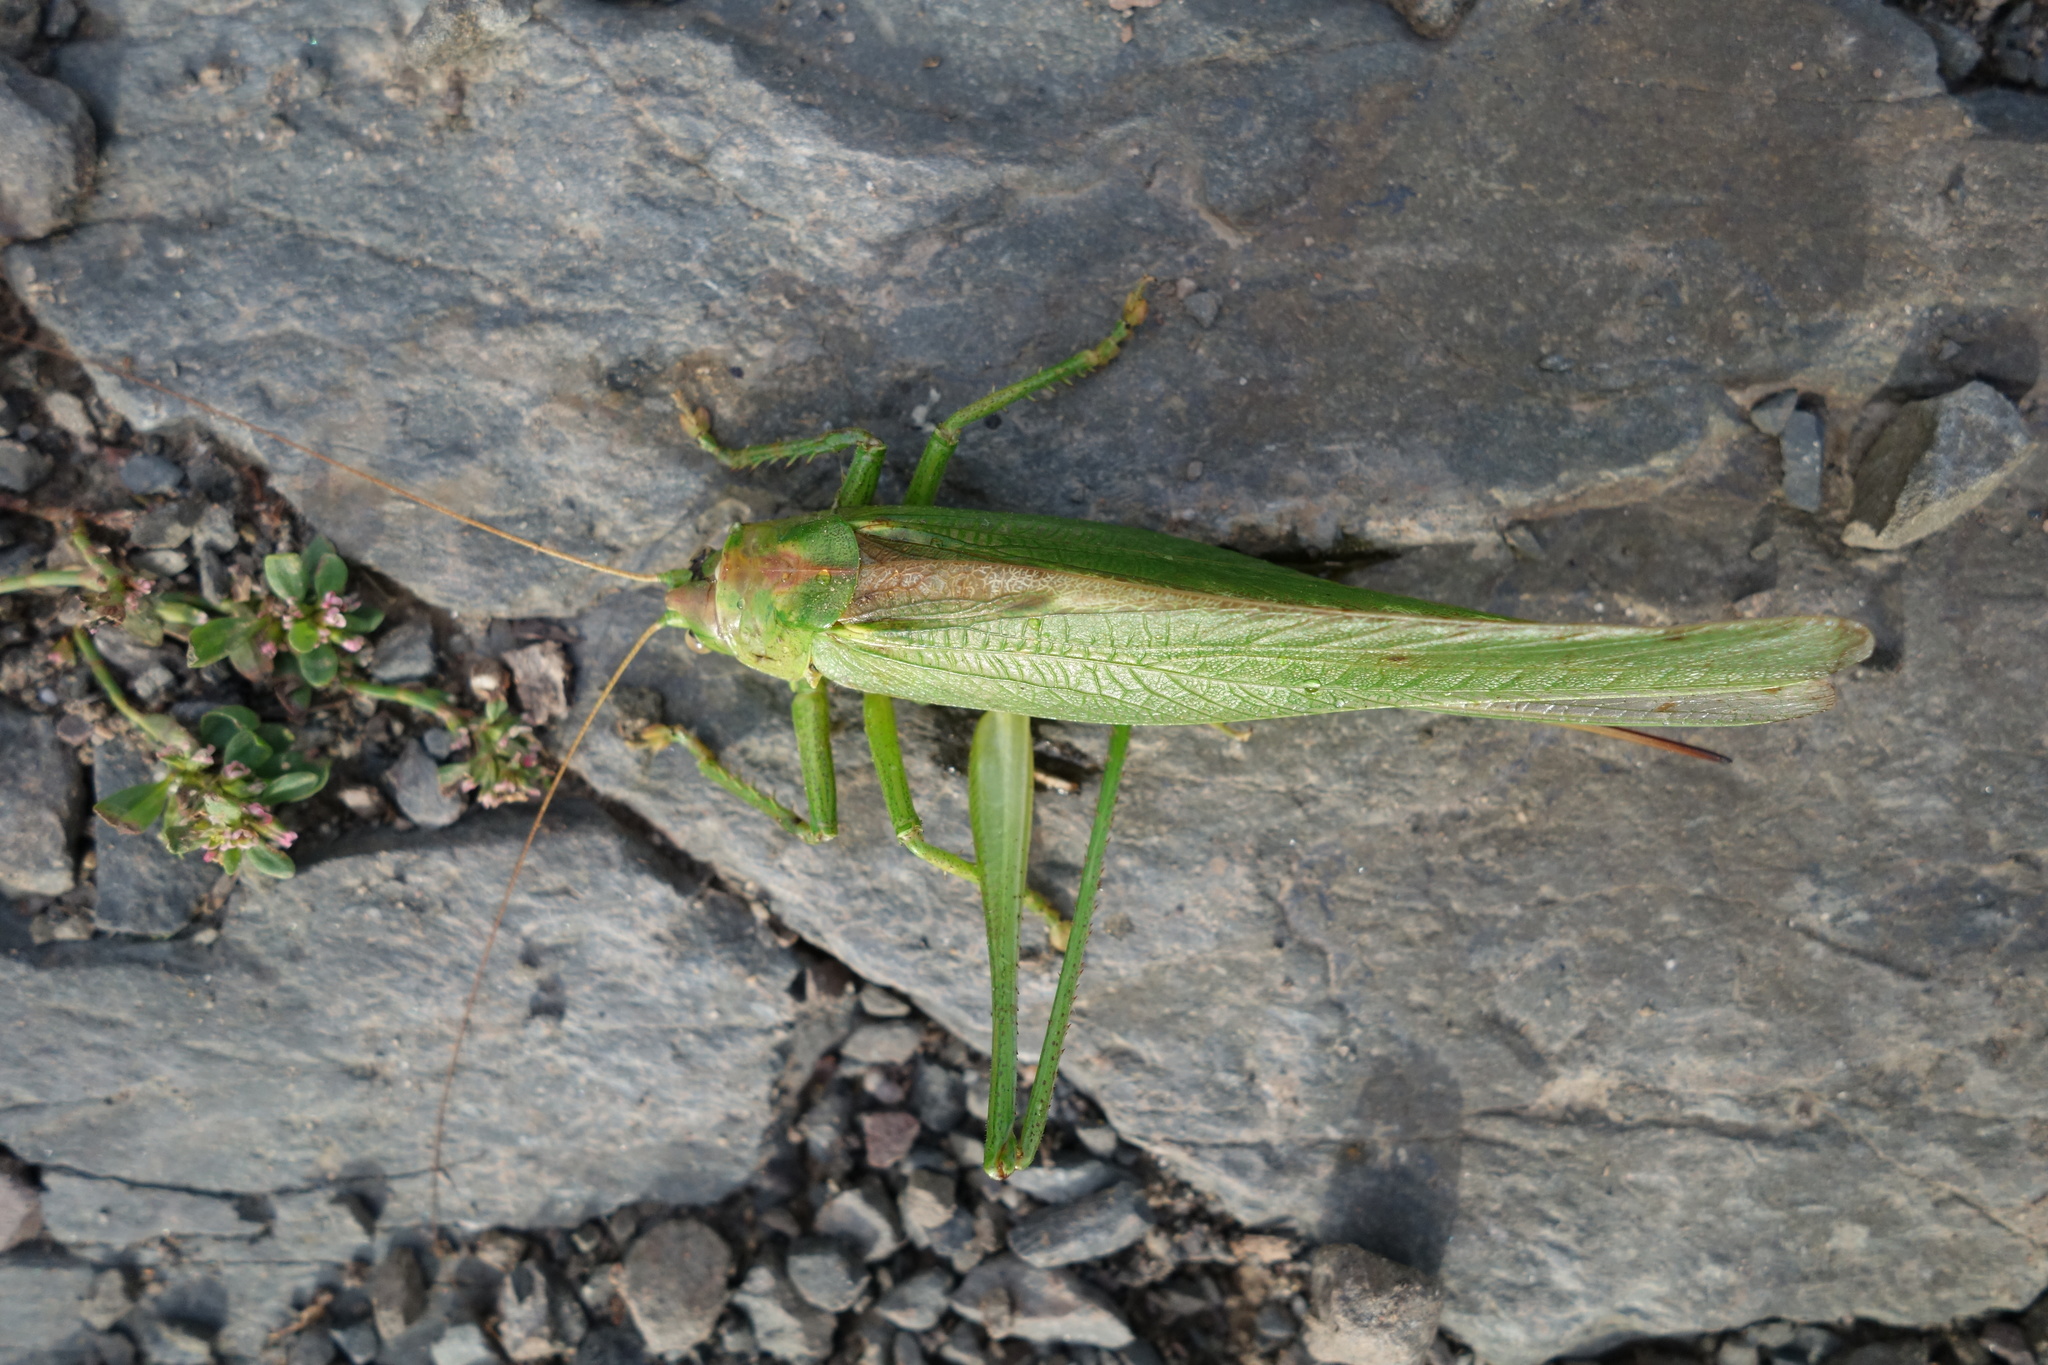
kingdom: Animalia
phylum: Arthropoda
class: Insecta
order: Orthoptera
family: Tettigoniidae
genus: Tettigonia
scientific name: Tettigonia viridissima
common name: Great green bush-cricket
